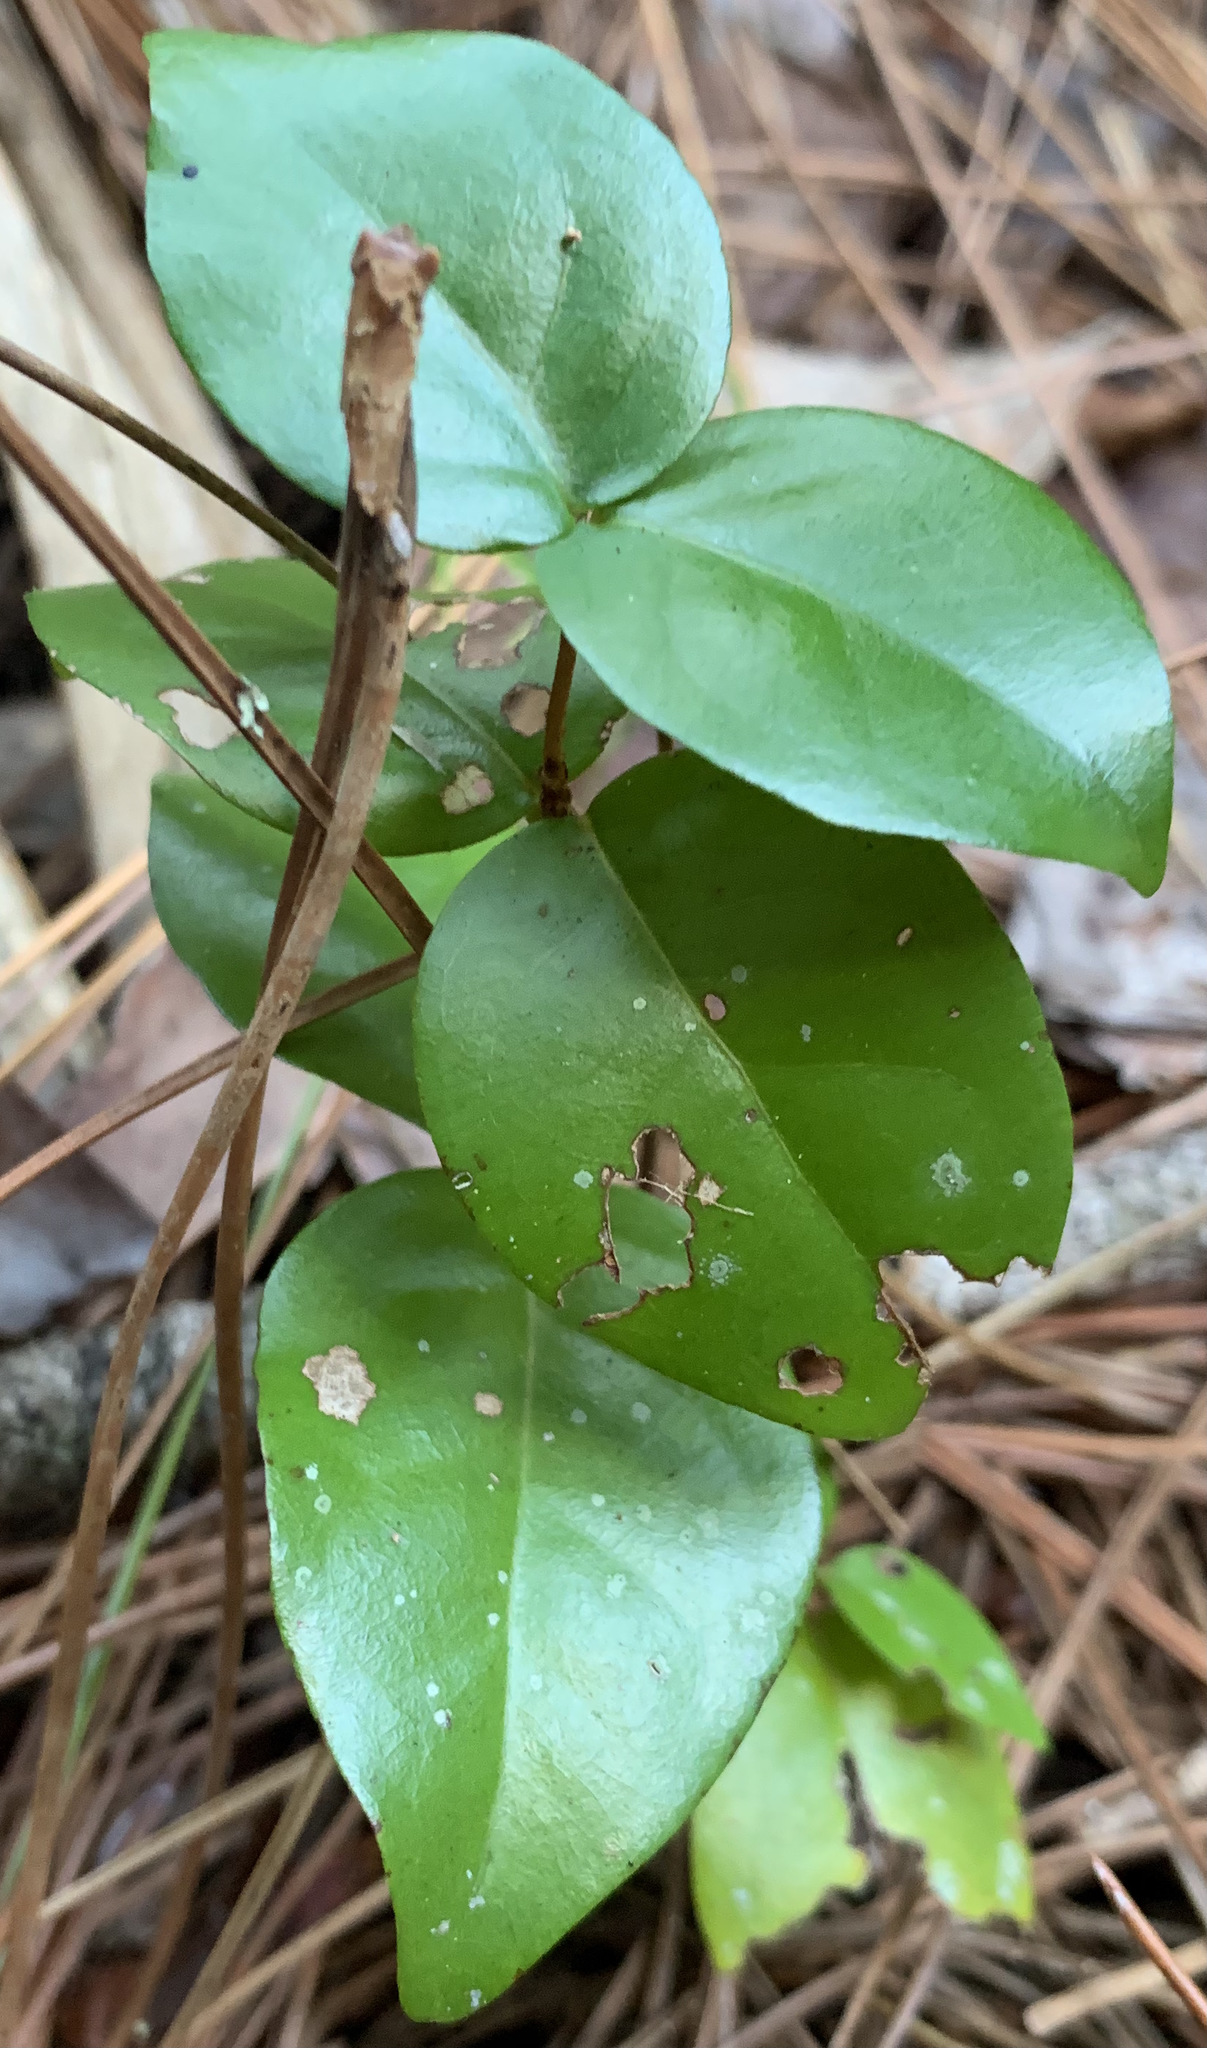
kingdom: Plantae
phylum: Tracheophyta
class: Magnoliopsida
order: Myrtales
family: Myrtaceae
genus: Eugenia
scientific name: Eugenia uniflora
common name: Surinam cherry
